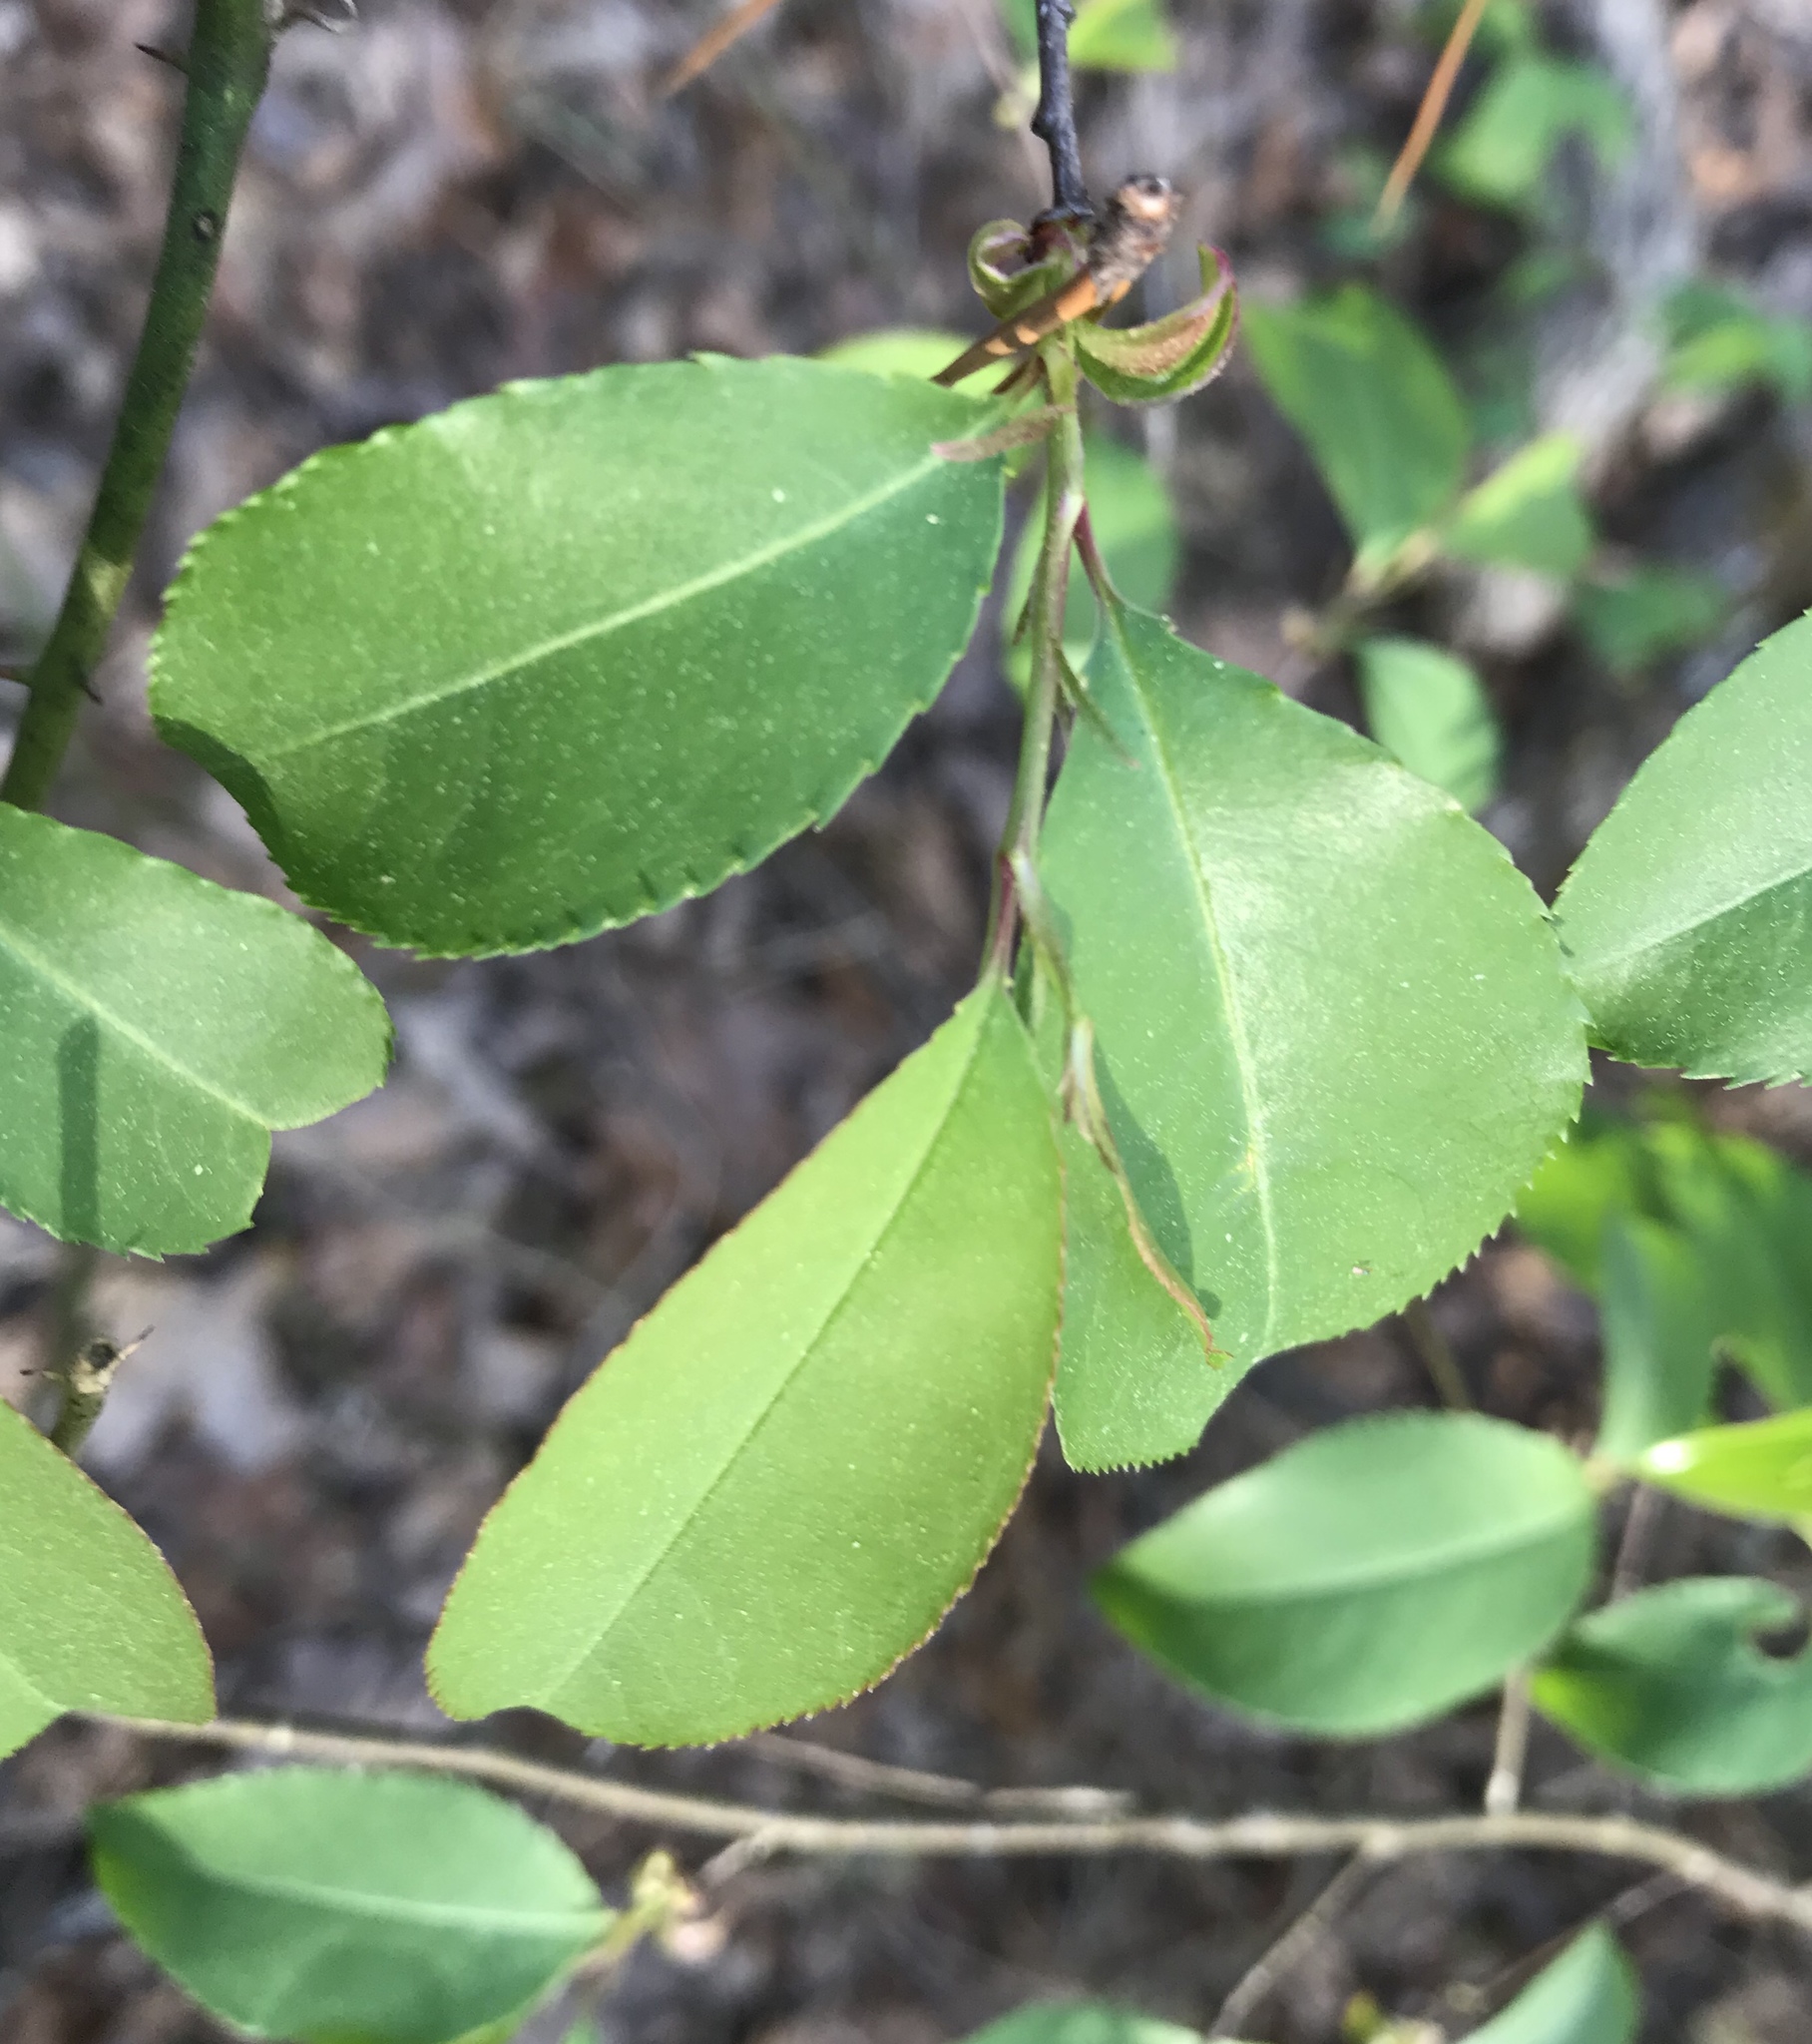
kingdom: Plantae
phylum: Tracheophyta
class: Magnoliopsida
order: Rosales
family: Rosaceae
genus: Prunus
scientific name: Prunus serotina
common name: Black cherry
